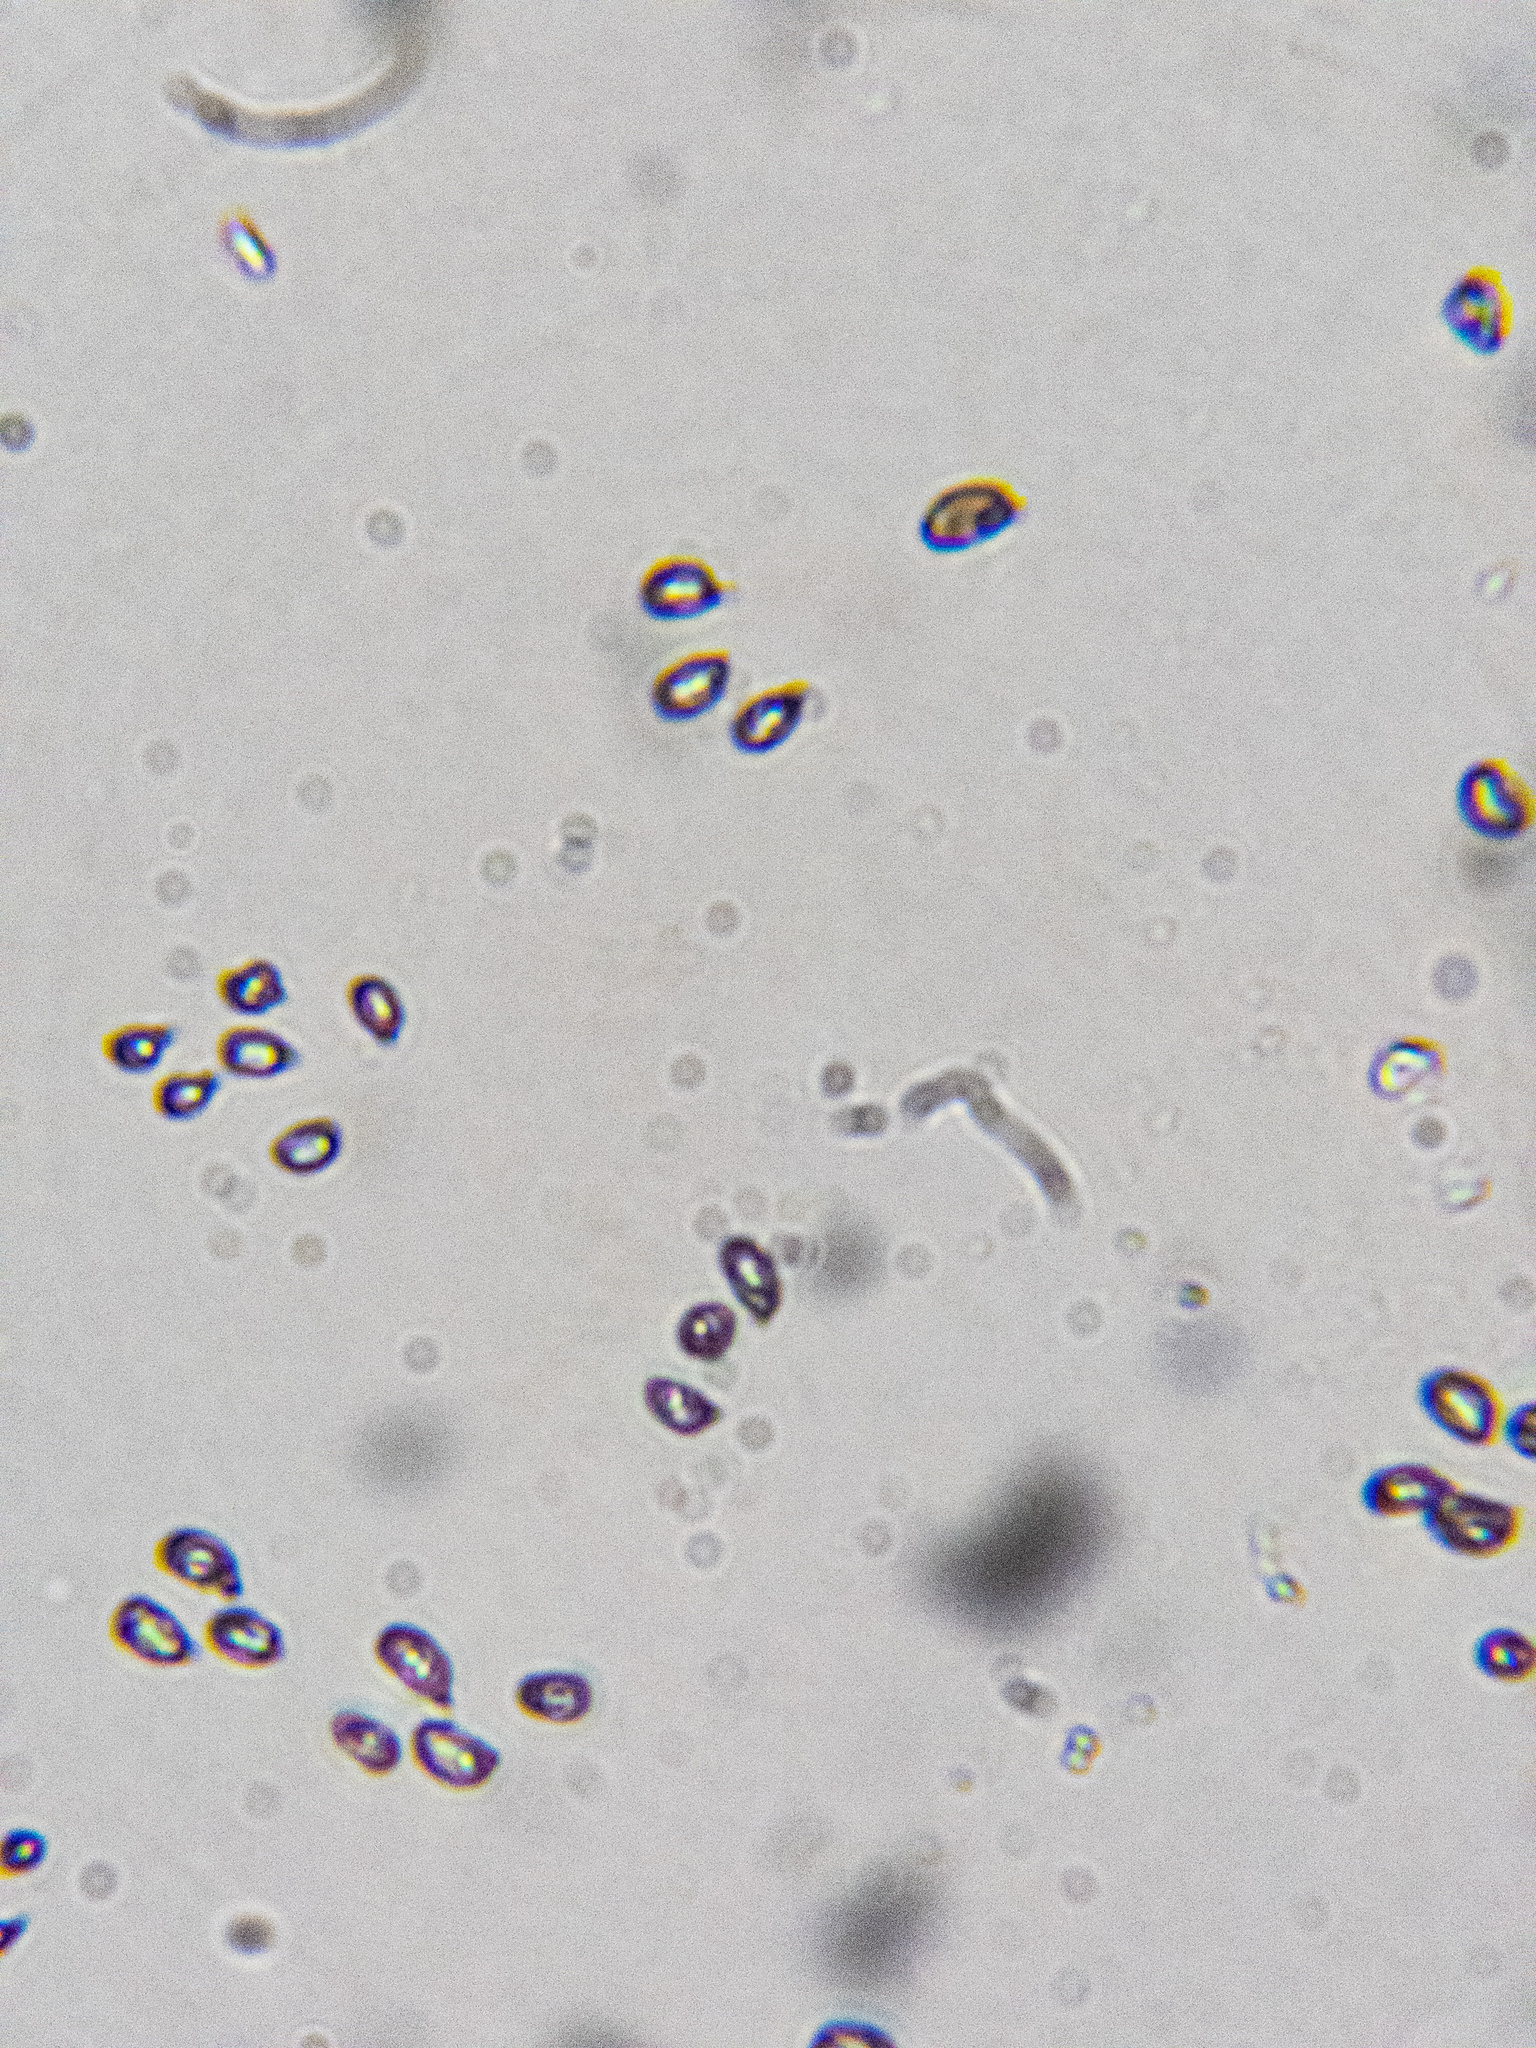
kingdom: Fungi
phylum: Basidiomycota
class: Agaricomycetes
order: Agaricales
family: Clavariaceae
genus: Clavaria
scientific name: Clavaria fumosa
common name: Smoky spindles
